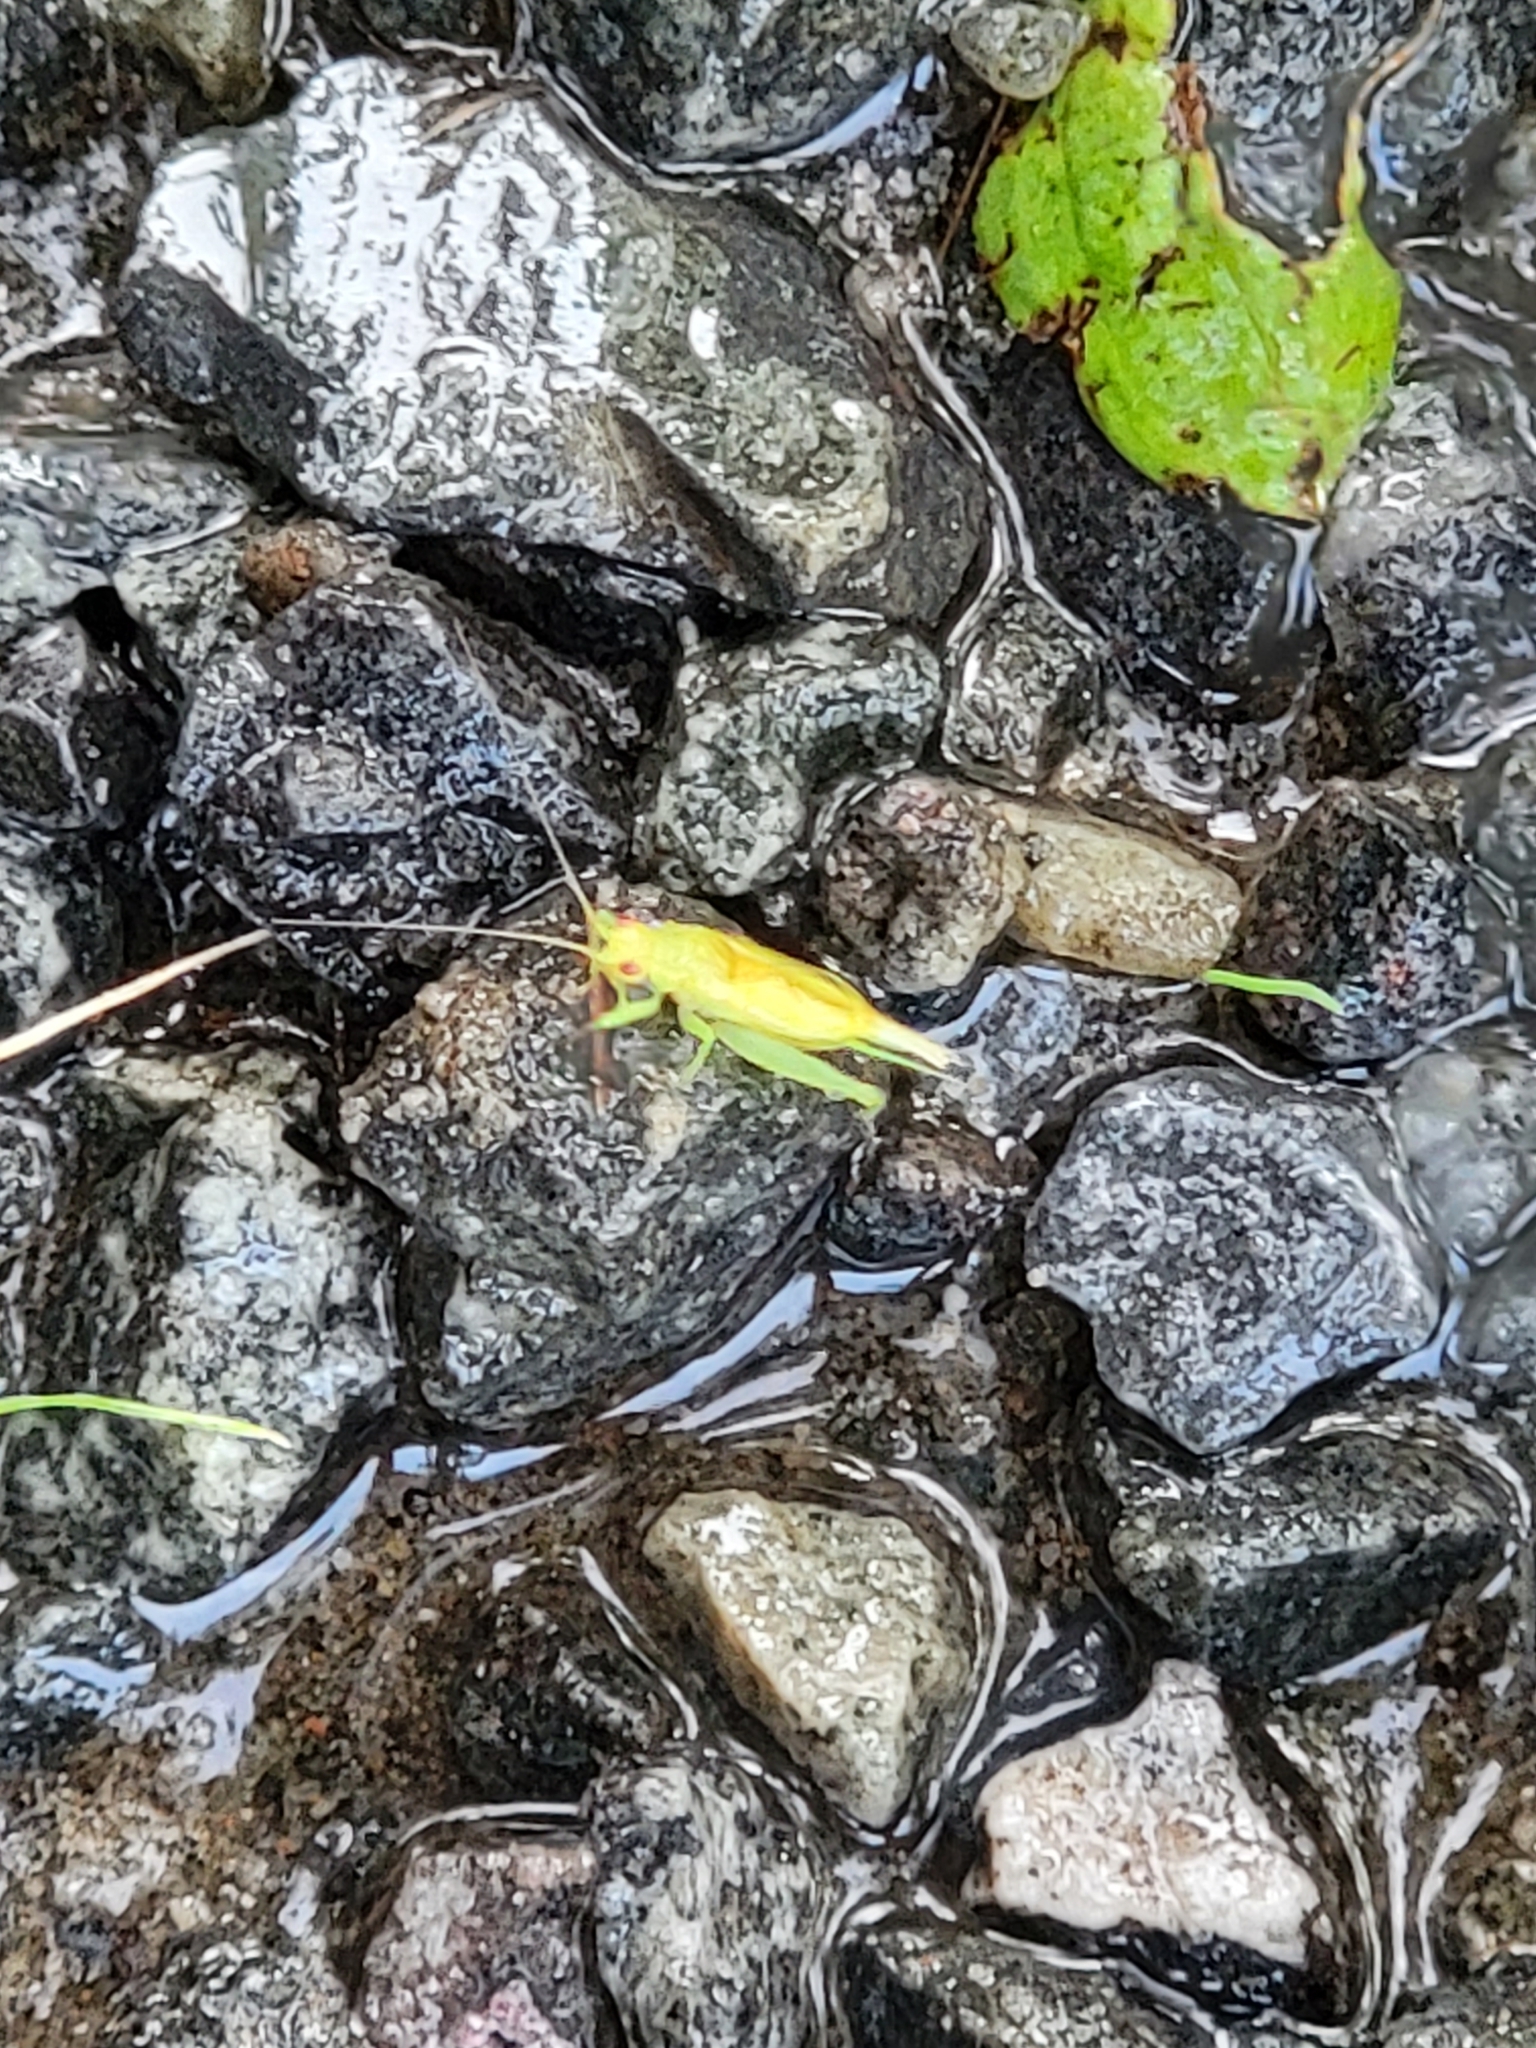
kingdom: Animalia
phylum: Arthropoda
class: Insecta
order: Orthoptera
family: Trigonidiidae
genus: Cyrtoxipha
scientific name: Cyrtoxipha columbiana
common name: Columbian trig
